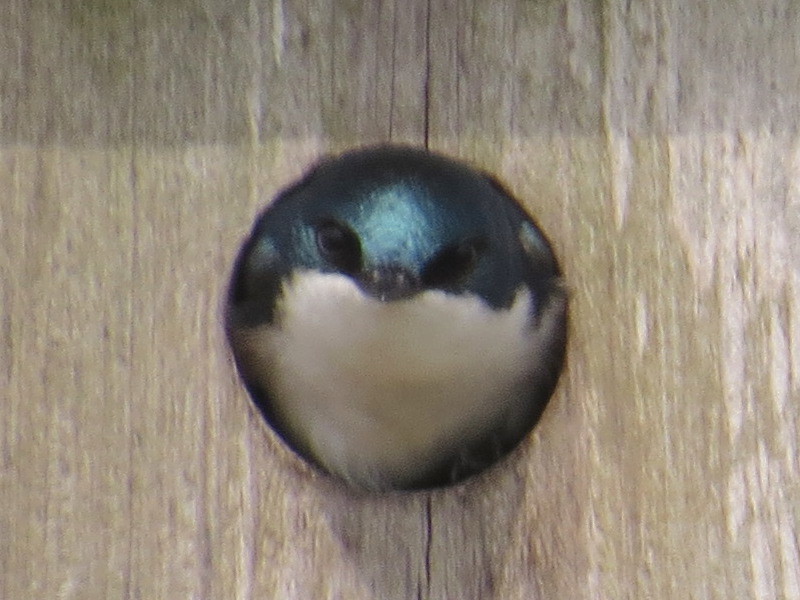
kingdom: Animalia
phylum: Chordata
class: Aves
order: Passeriformes
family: Hirundinidae
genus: Tachycineta
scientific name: Tachycineta bicolor
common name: Tree swallow
